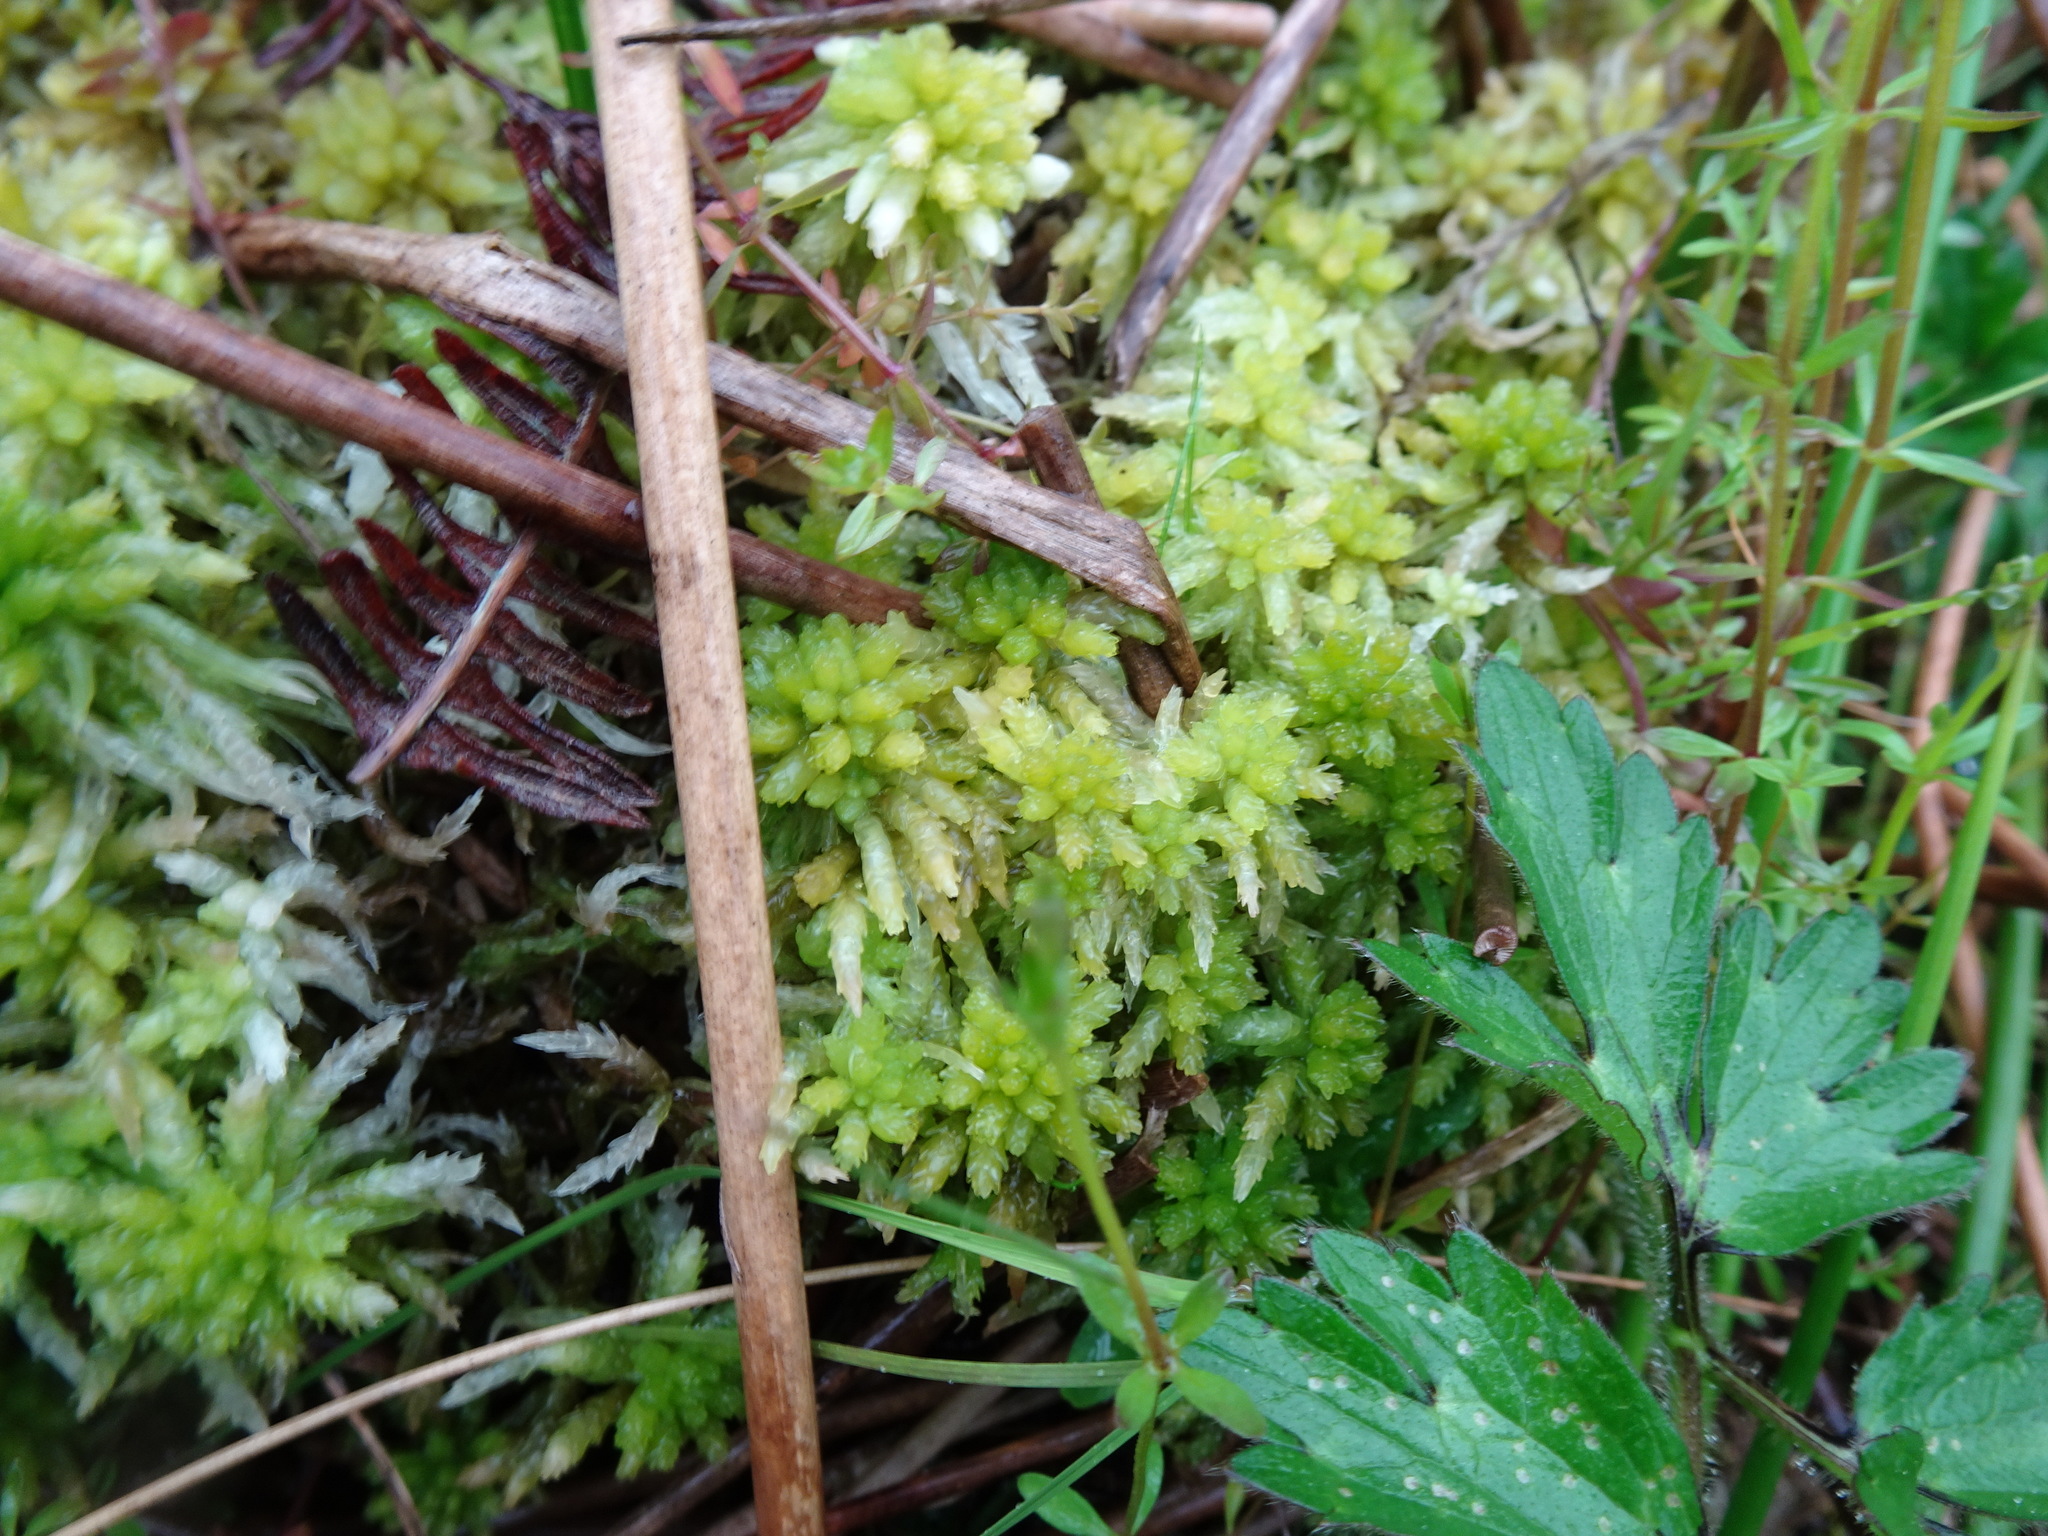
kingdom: Plantae
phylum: Bryophyta
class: Sphagnopsida
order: Sphagnales
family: Sphagnaceae
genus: Sphagnum
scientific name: Sphagnum palustre
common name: Blunt-leaved bog-moss
